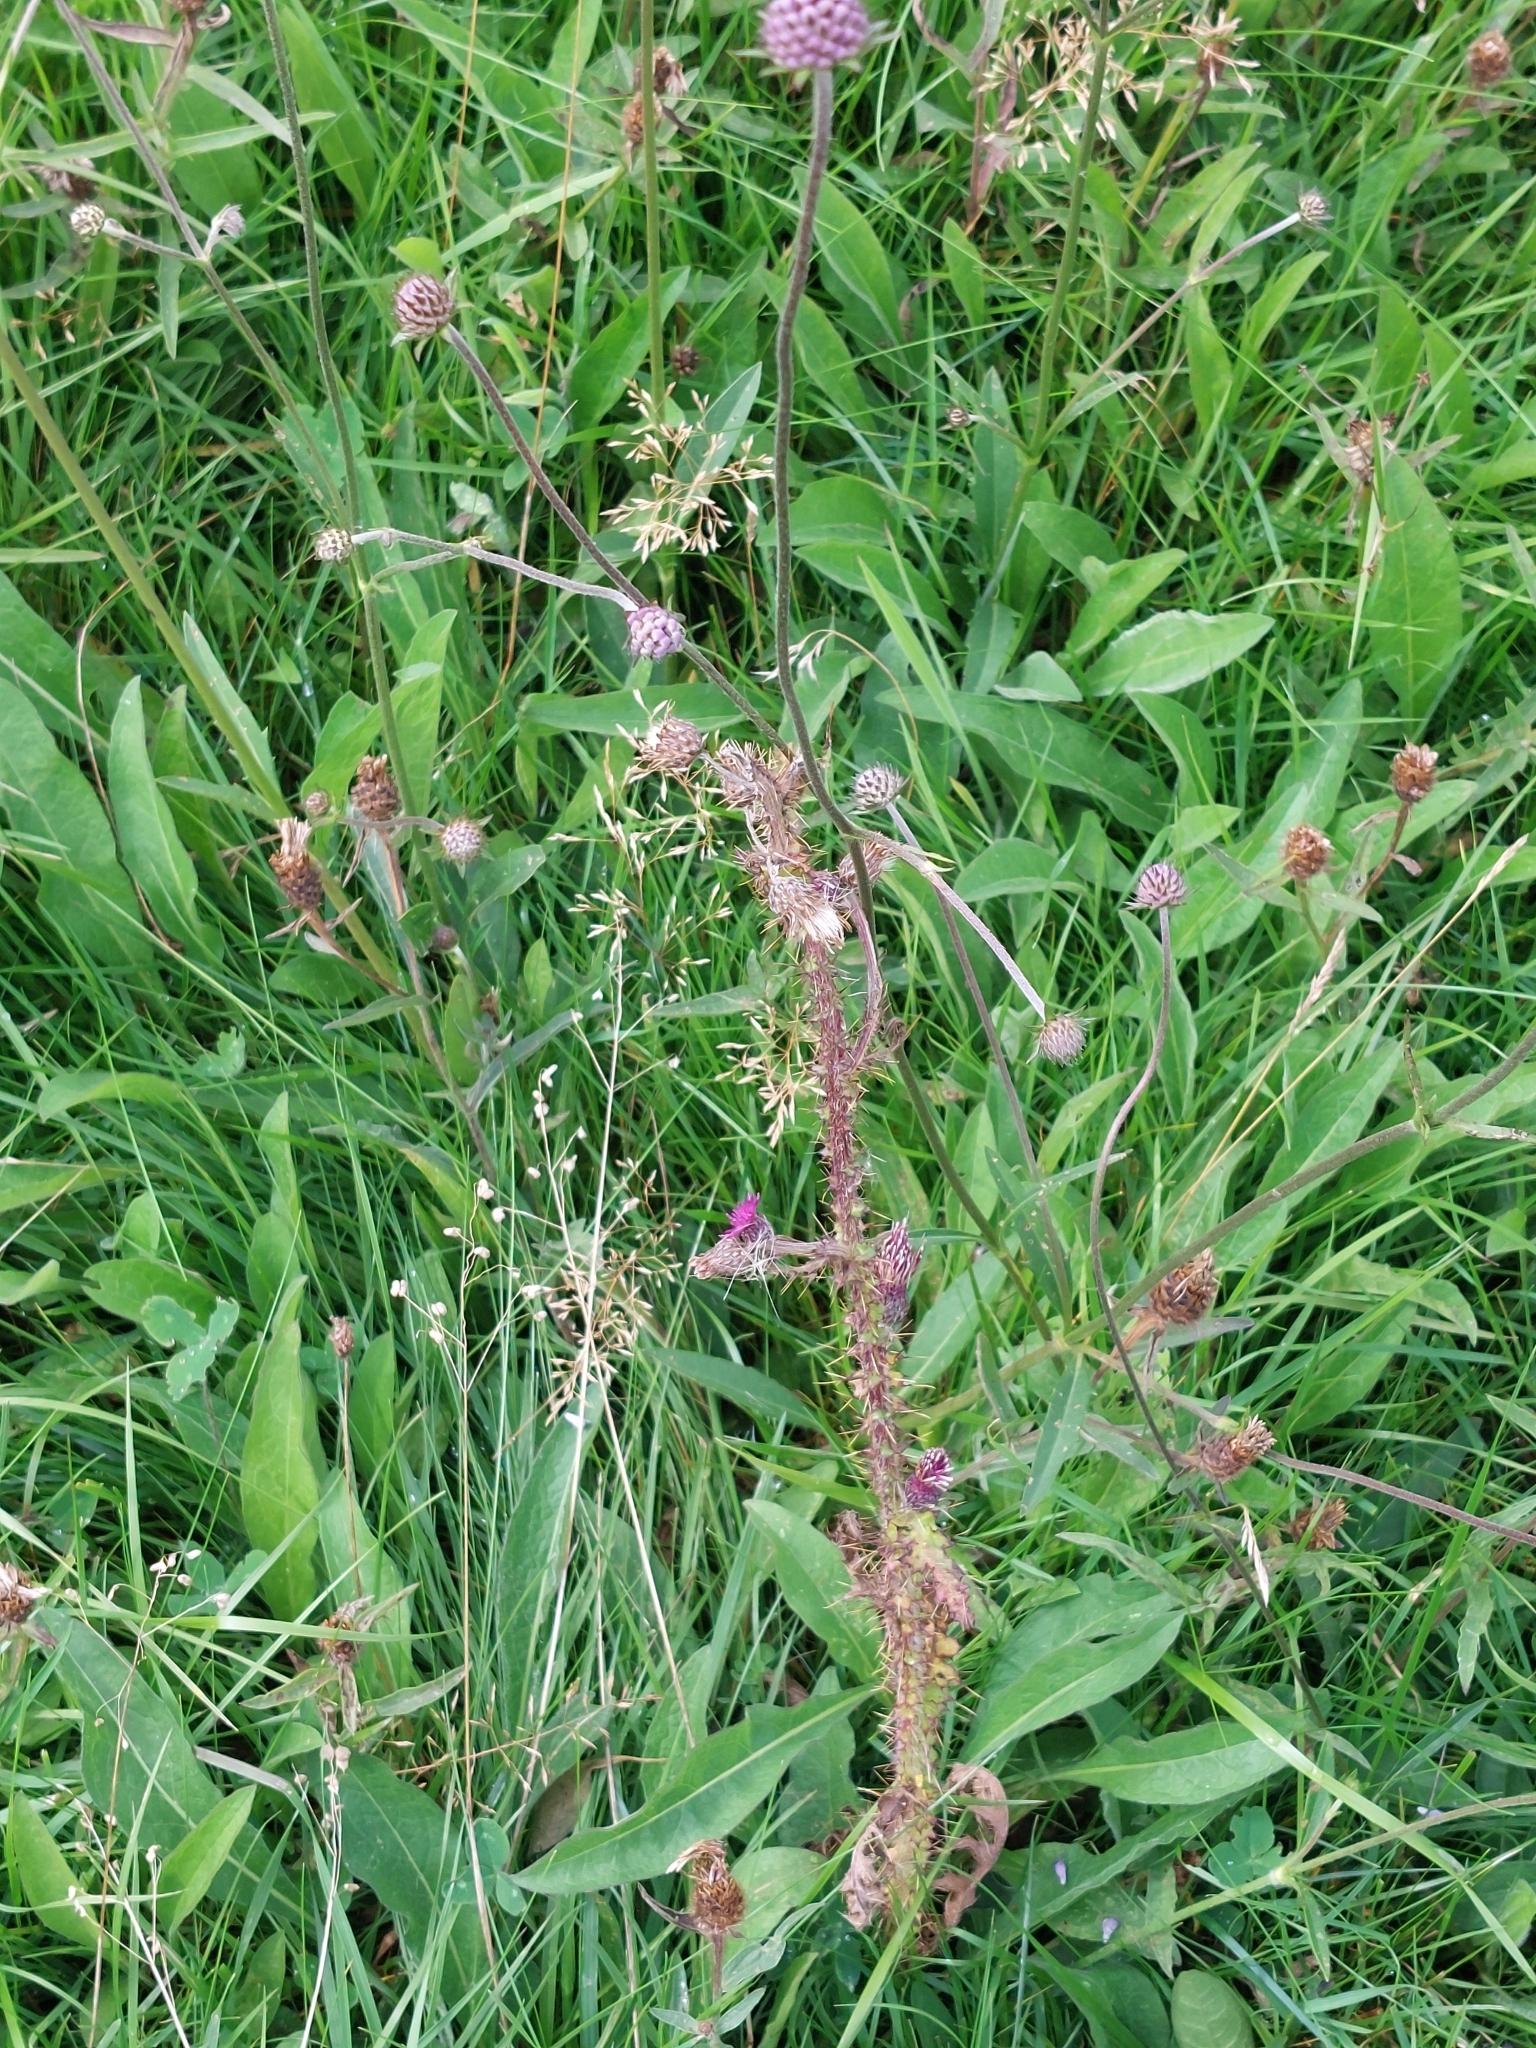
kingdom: Plantae
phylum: Tracheophyta
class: Magnoliopsida
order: Asterales
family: Asteraceae
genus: Cirsium
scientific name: Cirsium palustre
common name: Marsh thistle
